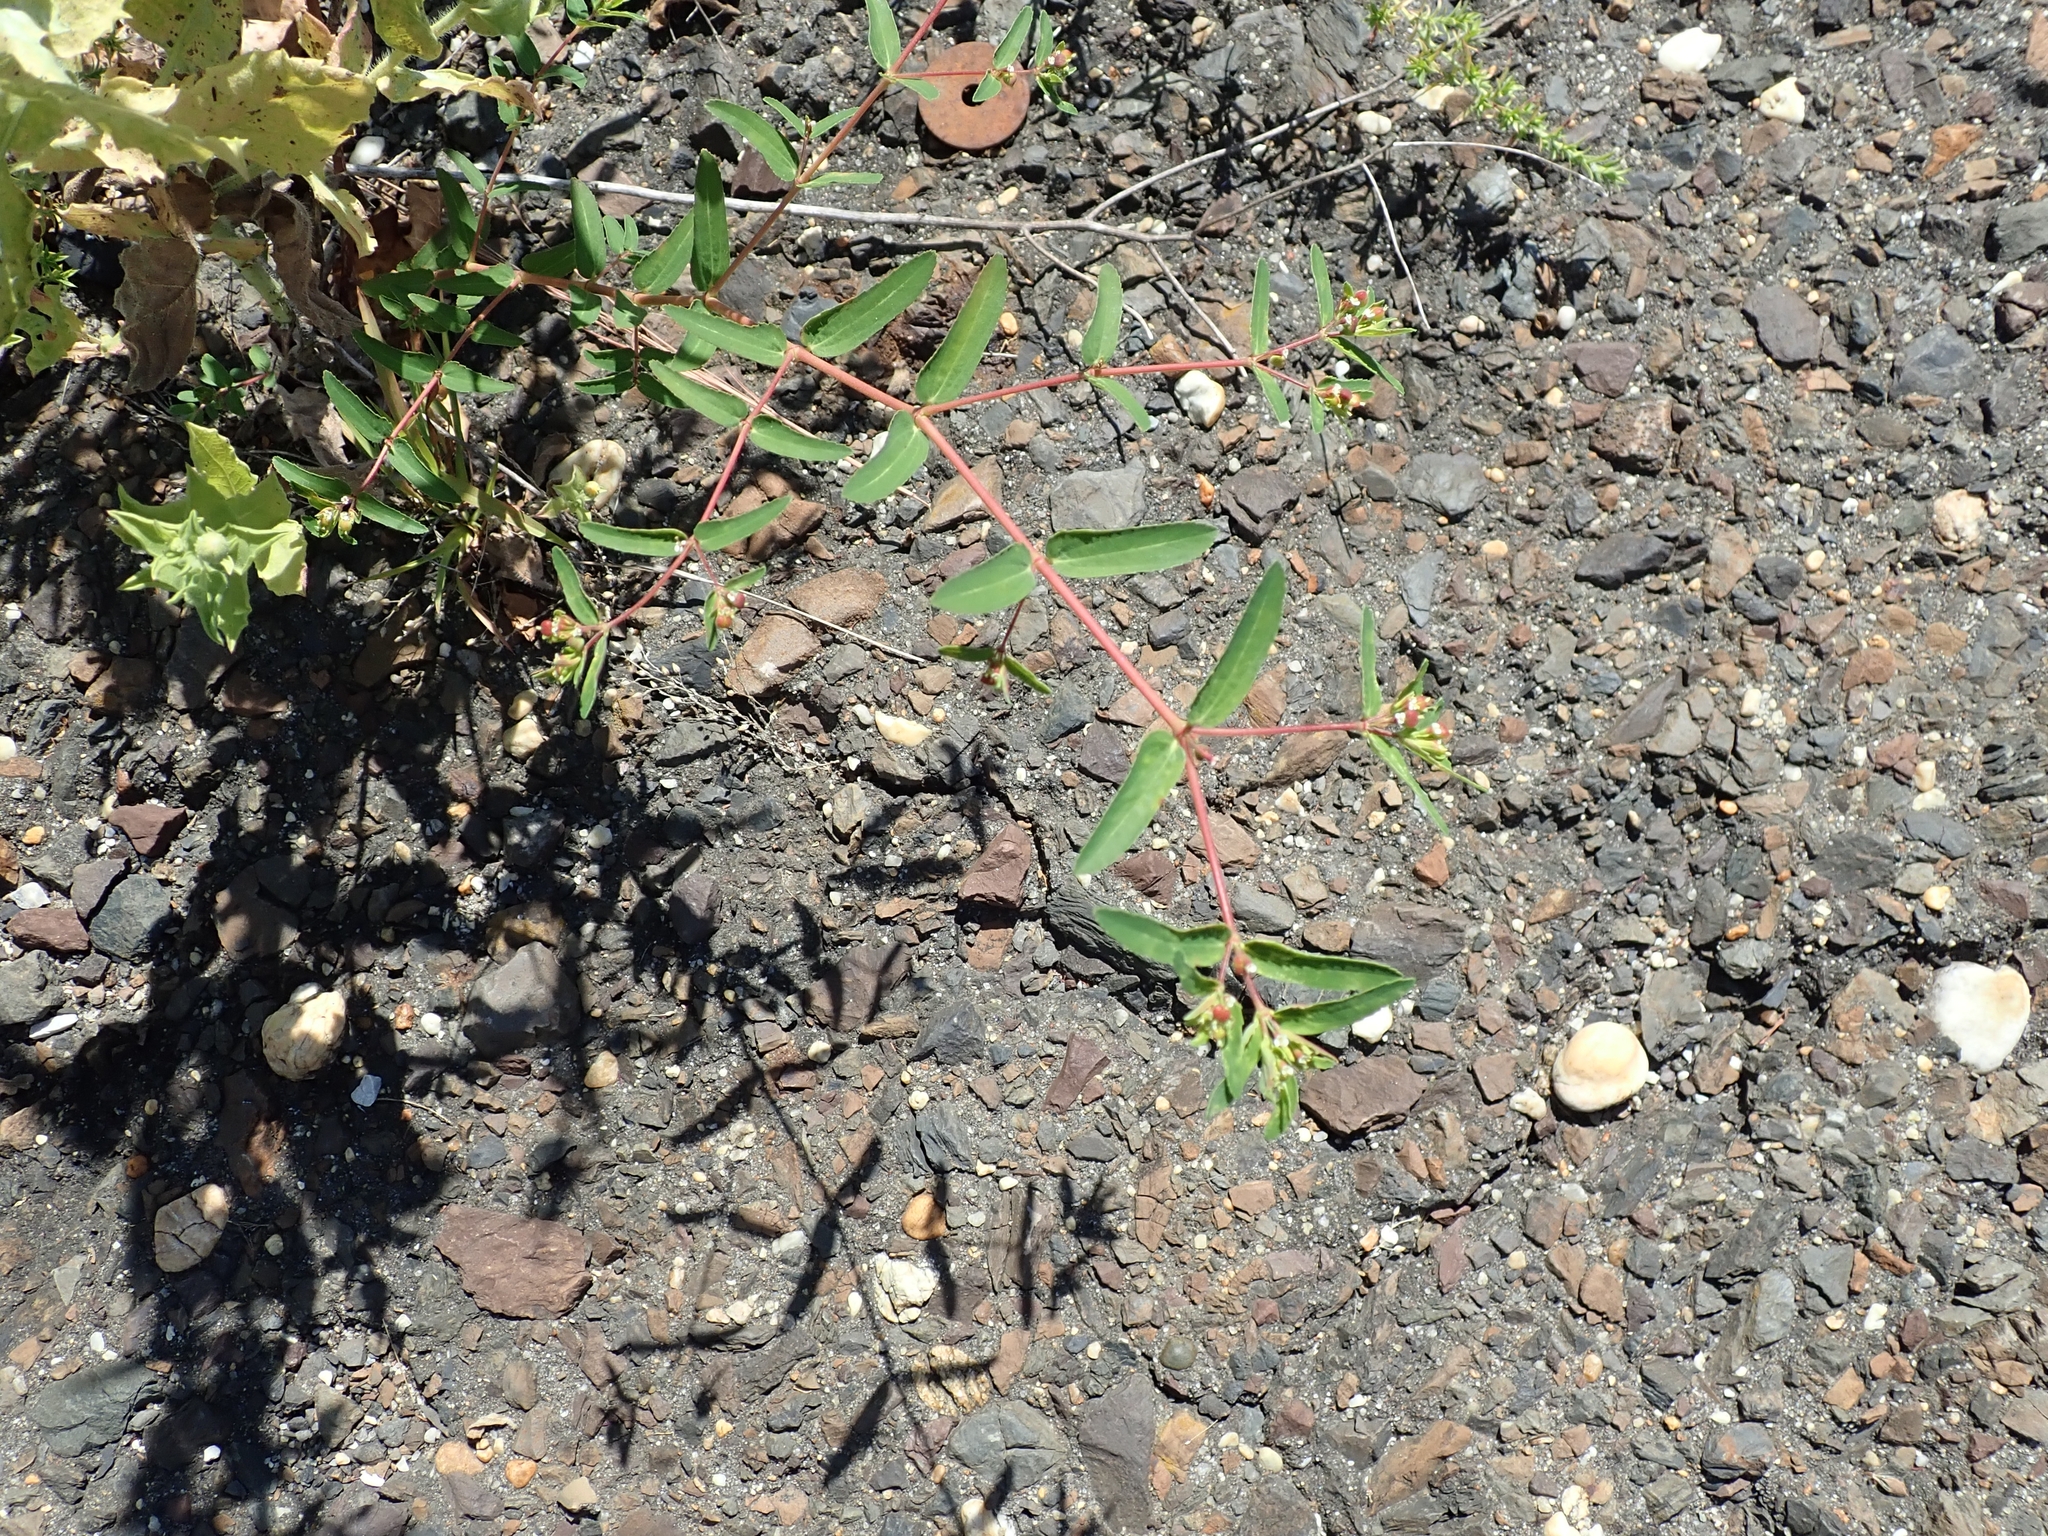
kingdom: Plantae
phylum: Tracheophyta
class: Magnoliopsida
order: Malpighiales
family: Euphorbiaceae
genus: Euphorbia
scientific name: Euphorbia nutans
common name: Eyebane
